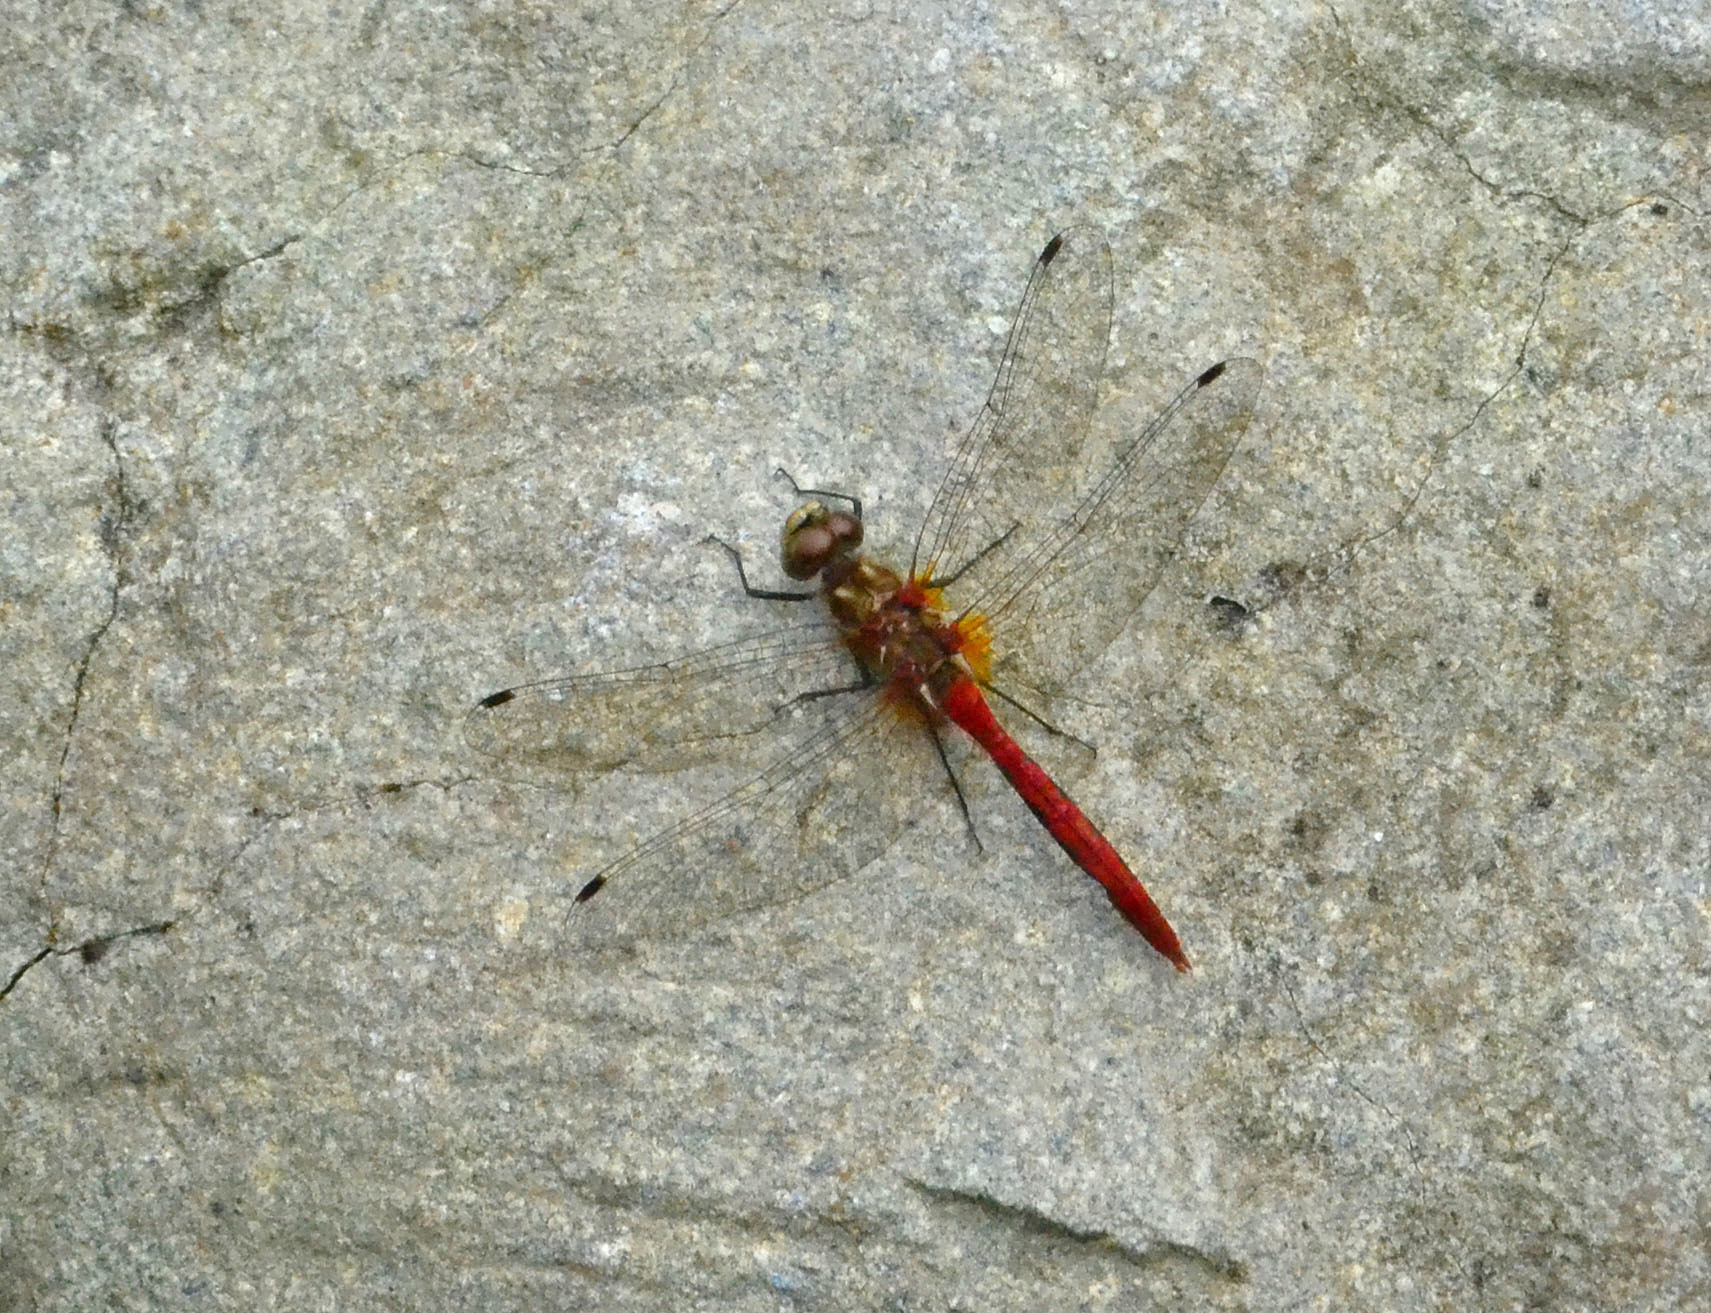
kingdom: Animalia
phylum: Arthropoda
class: Insecta
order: Odonata
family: Libellulidae
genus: Sympetrum
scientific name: Sympetrum pallipes
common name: Striped meadowhawk
